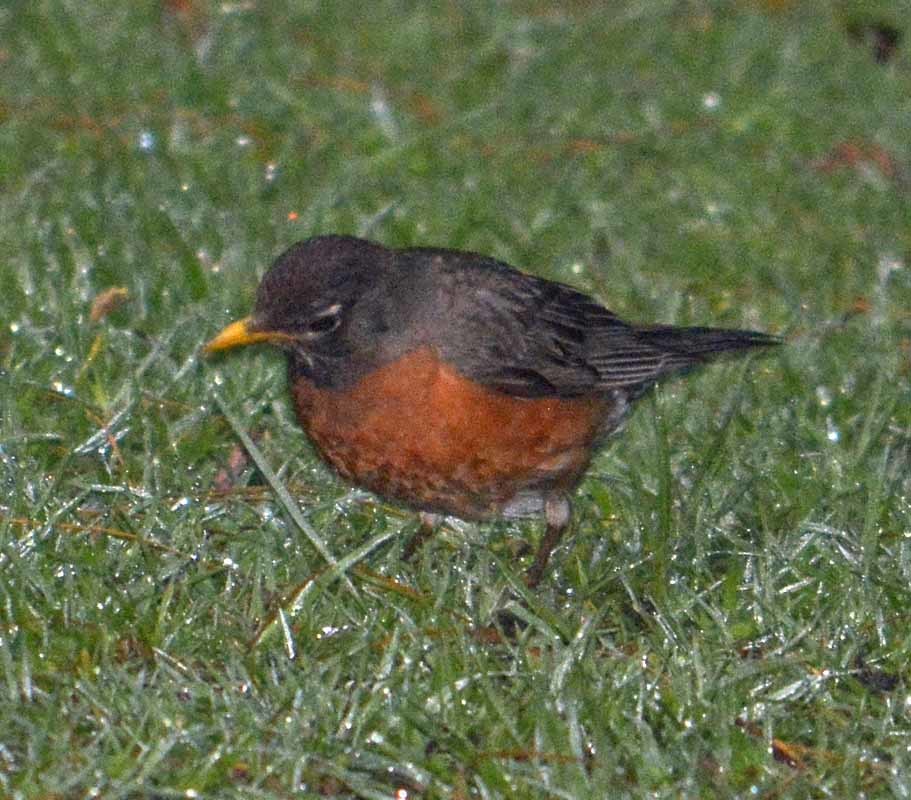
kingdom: Animalia
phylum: Chordata
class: Aves
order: Passeriformes
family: Turdidae
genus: Turdus
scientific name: Turdus migratorius
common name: American robin
